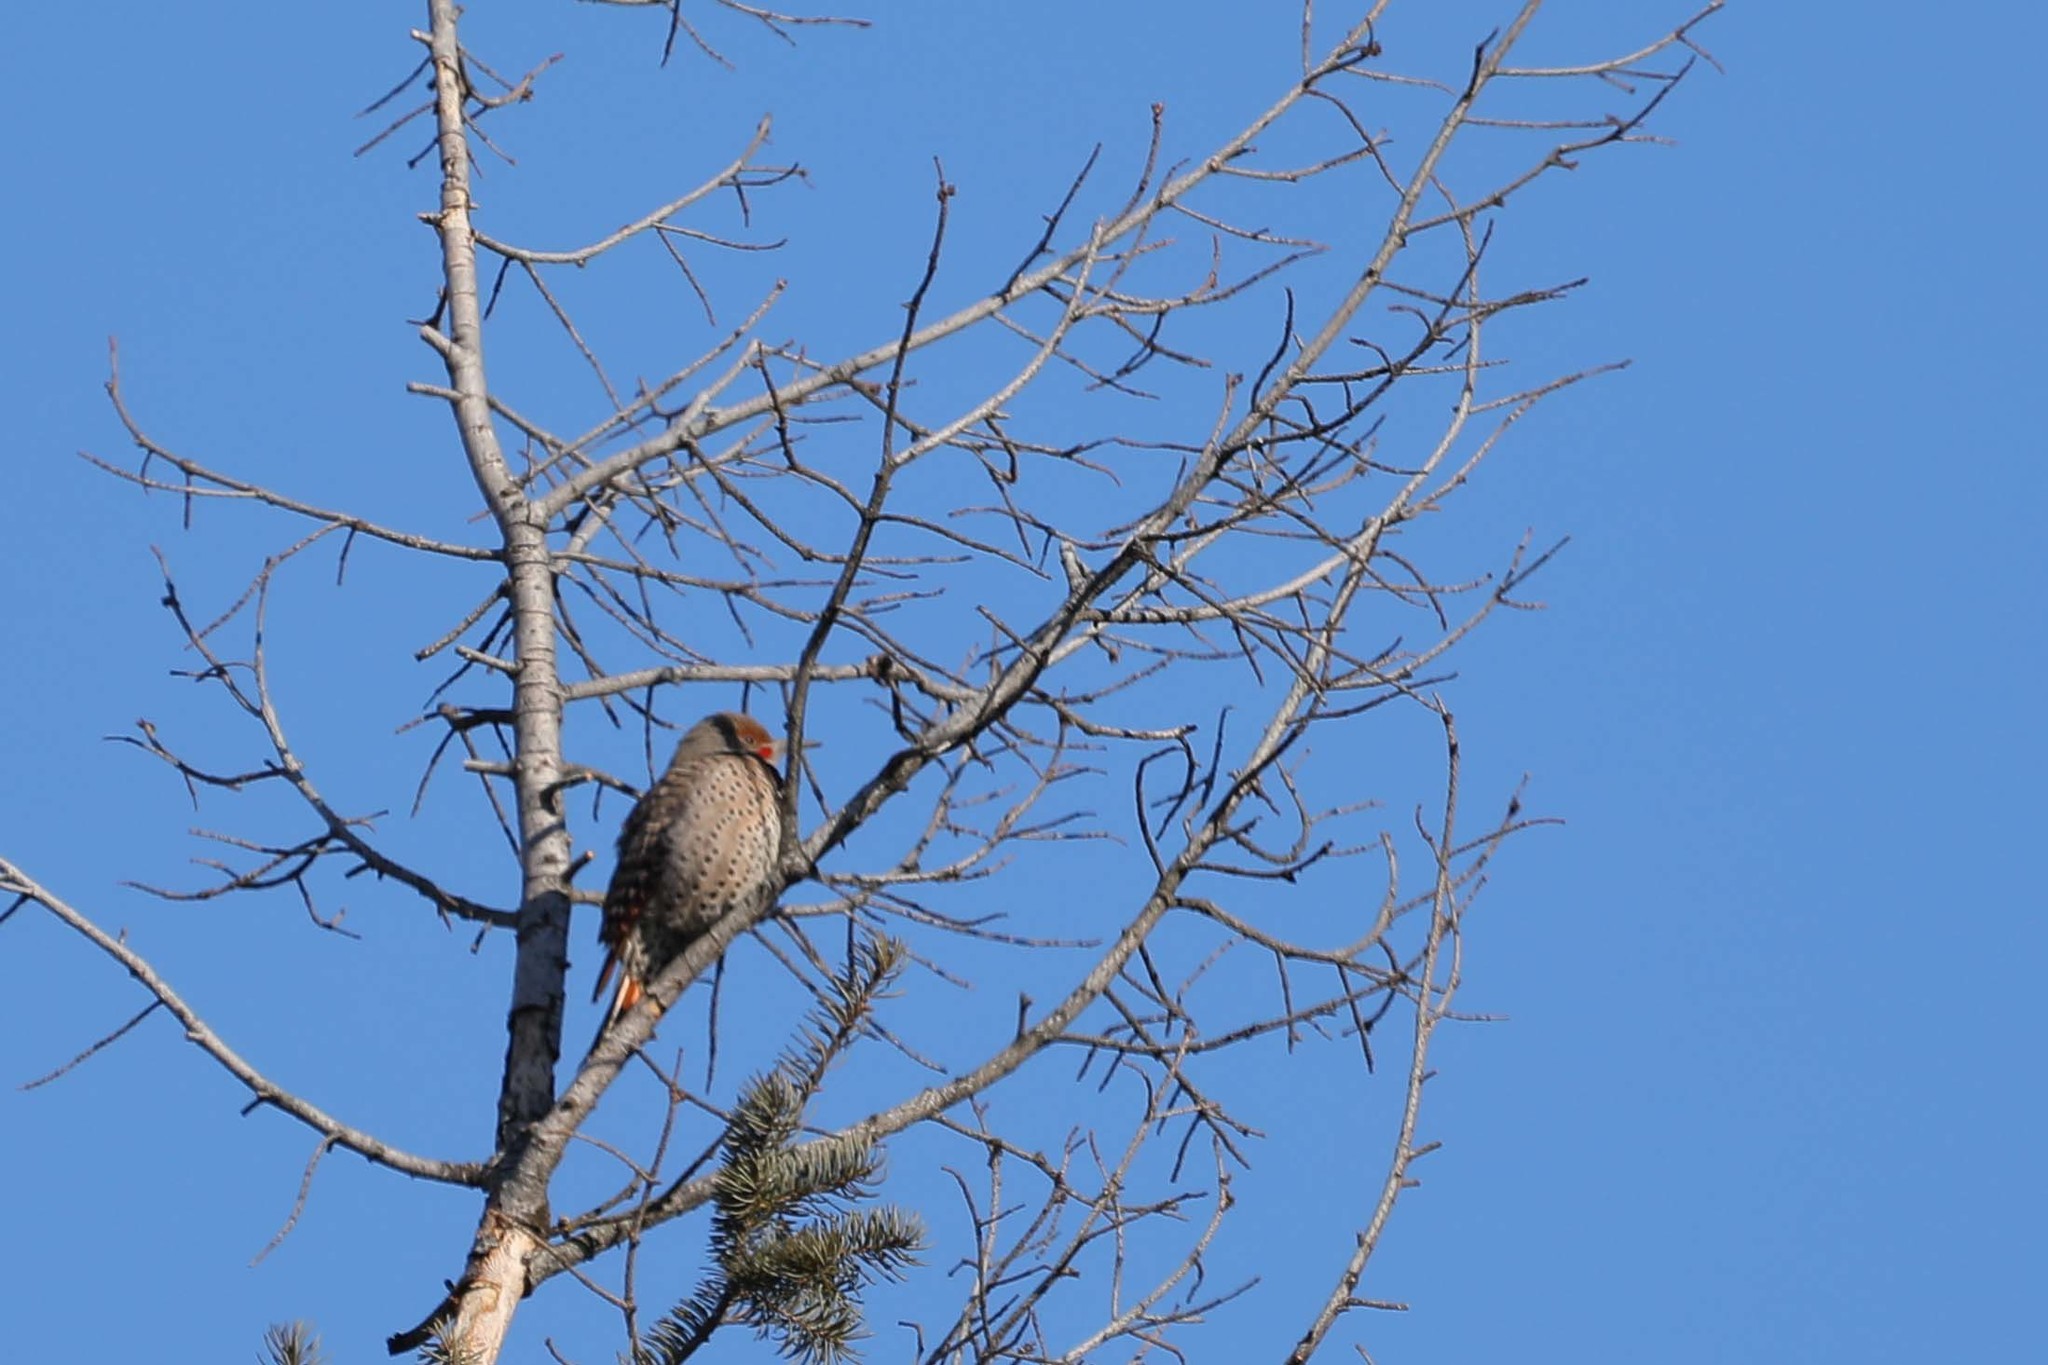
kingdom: Animalia
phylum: Chordata
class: Aves
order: Piciformes
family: Picidae
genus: Colaptes
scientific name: Colaptes auratus
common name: Northern flicker
